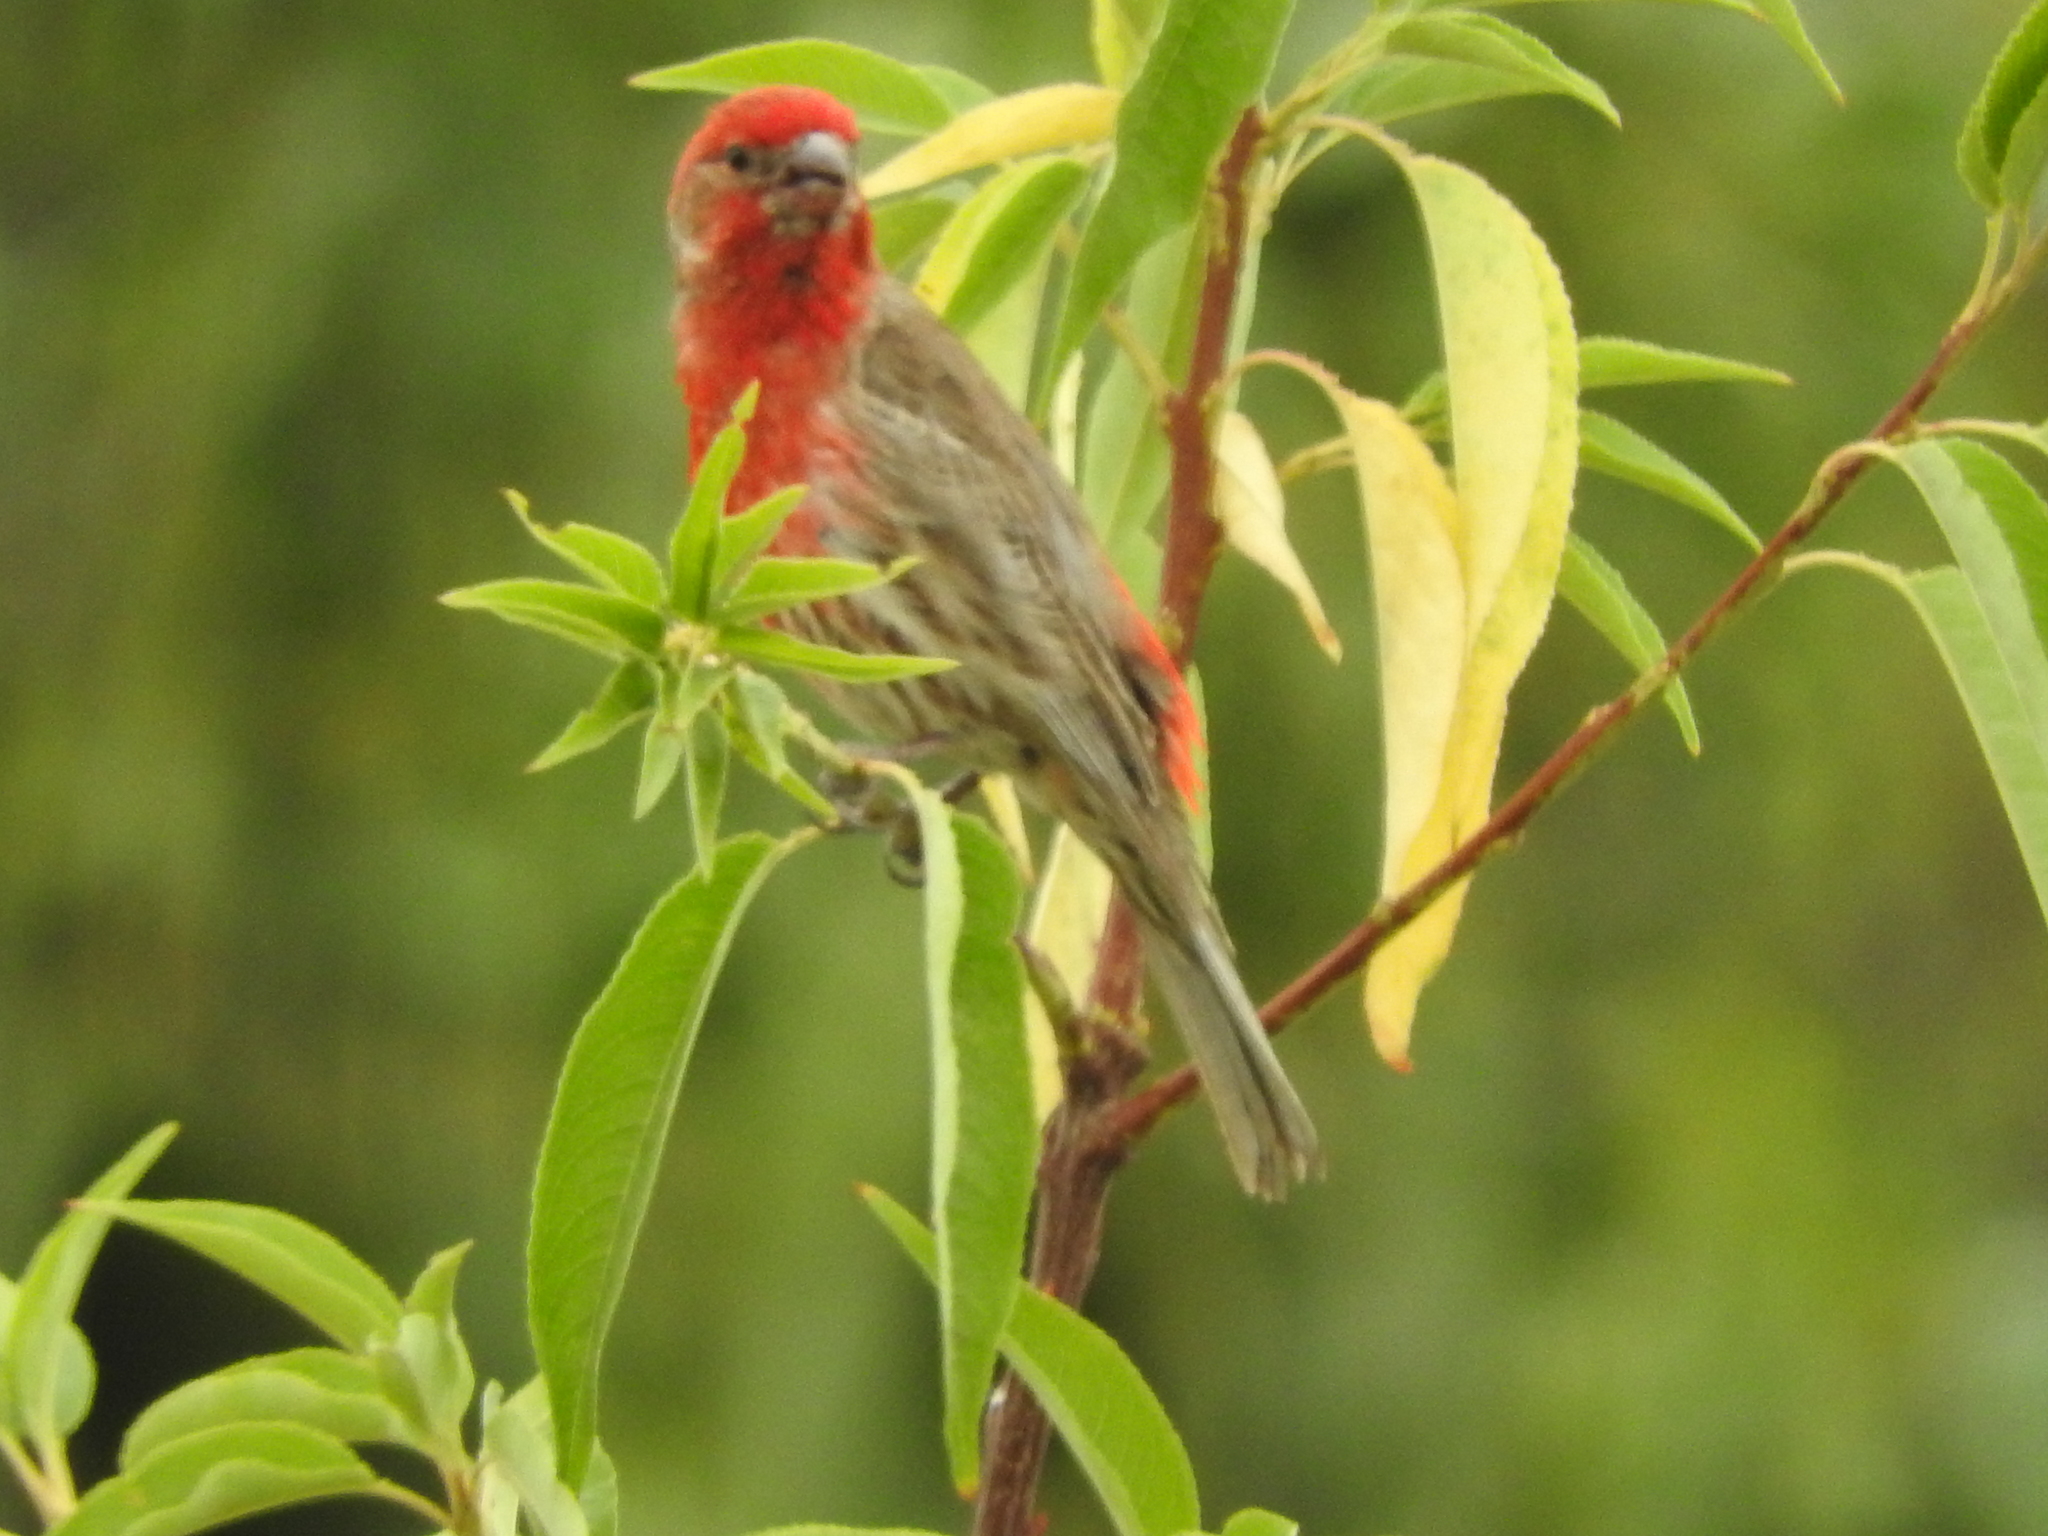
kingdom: Animalia
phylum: Chordata
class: Aves
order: Passeriformes
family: Fringillidae
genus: Haemorhous
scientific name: Haemorhous mexicanus
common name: House finch
